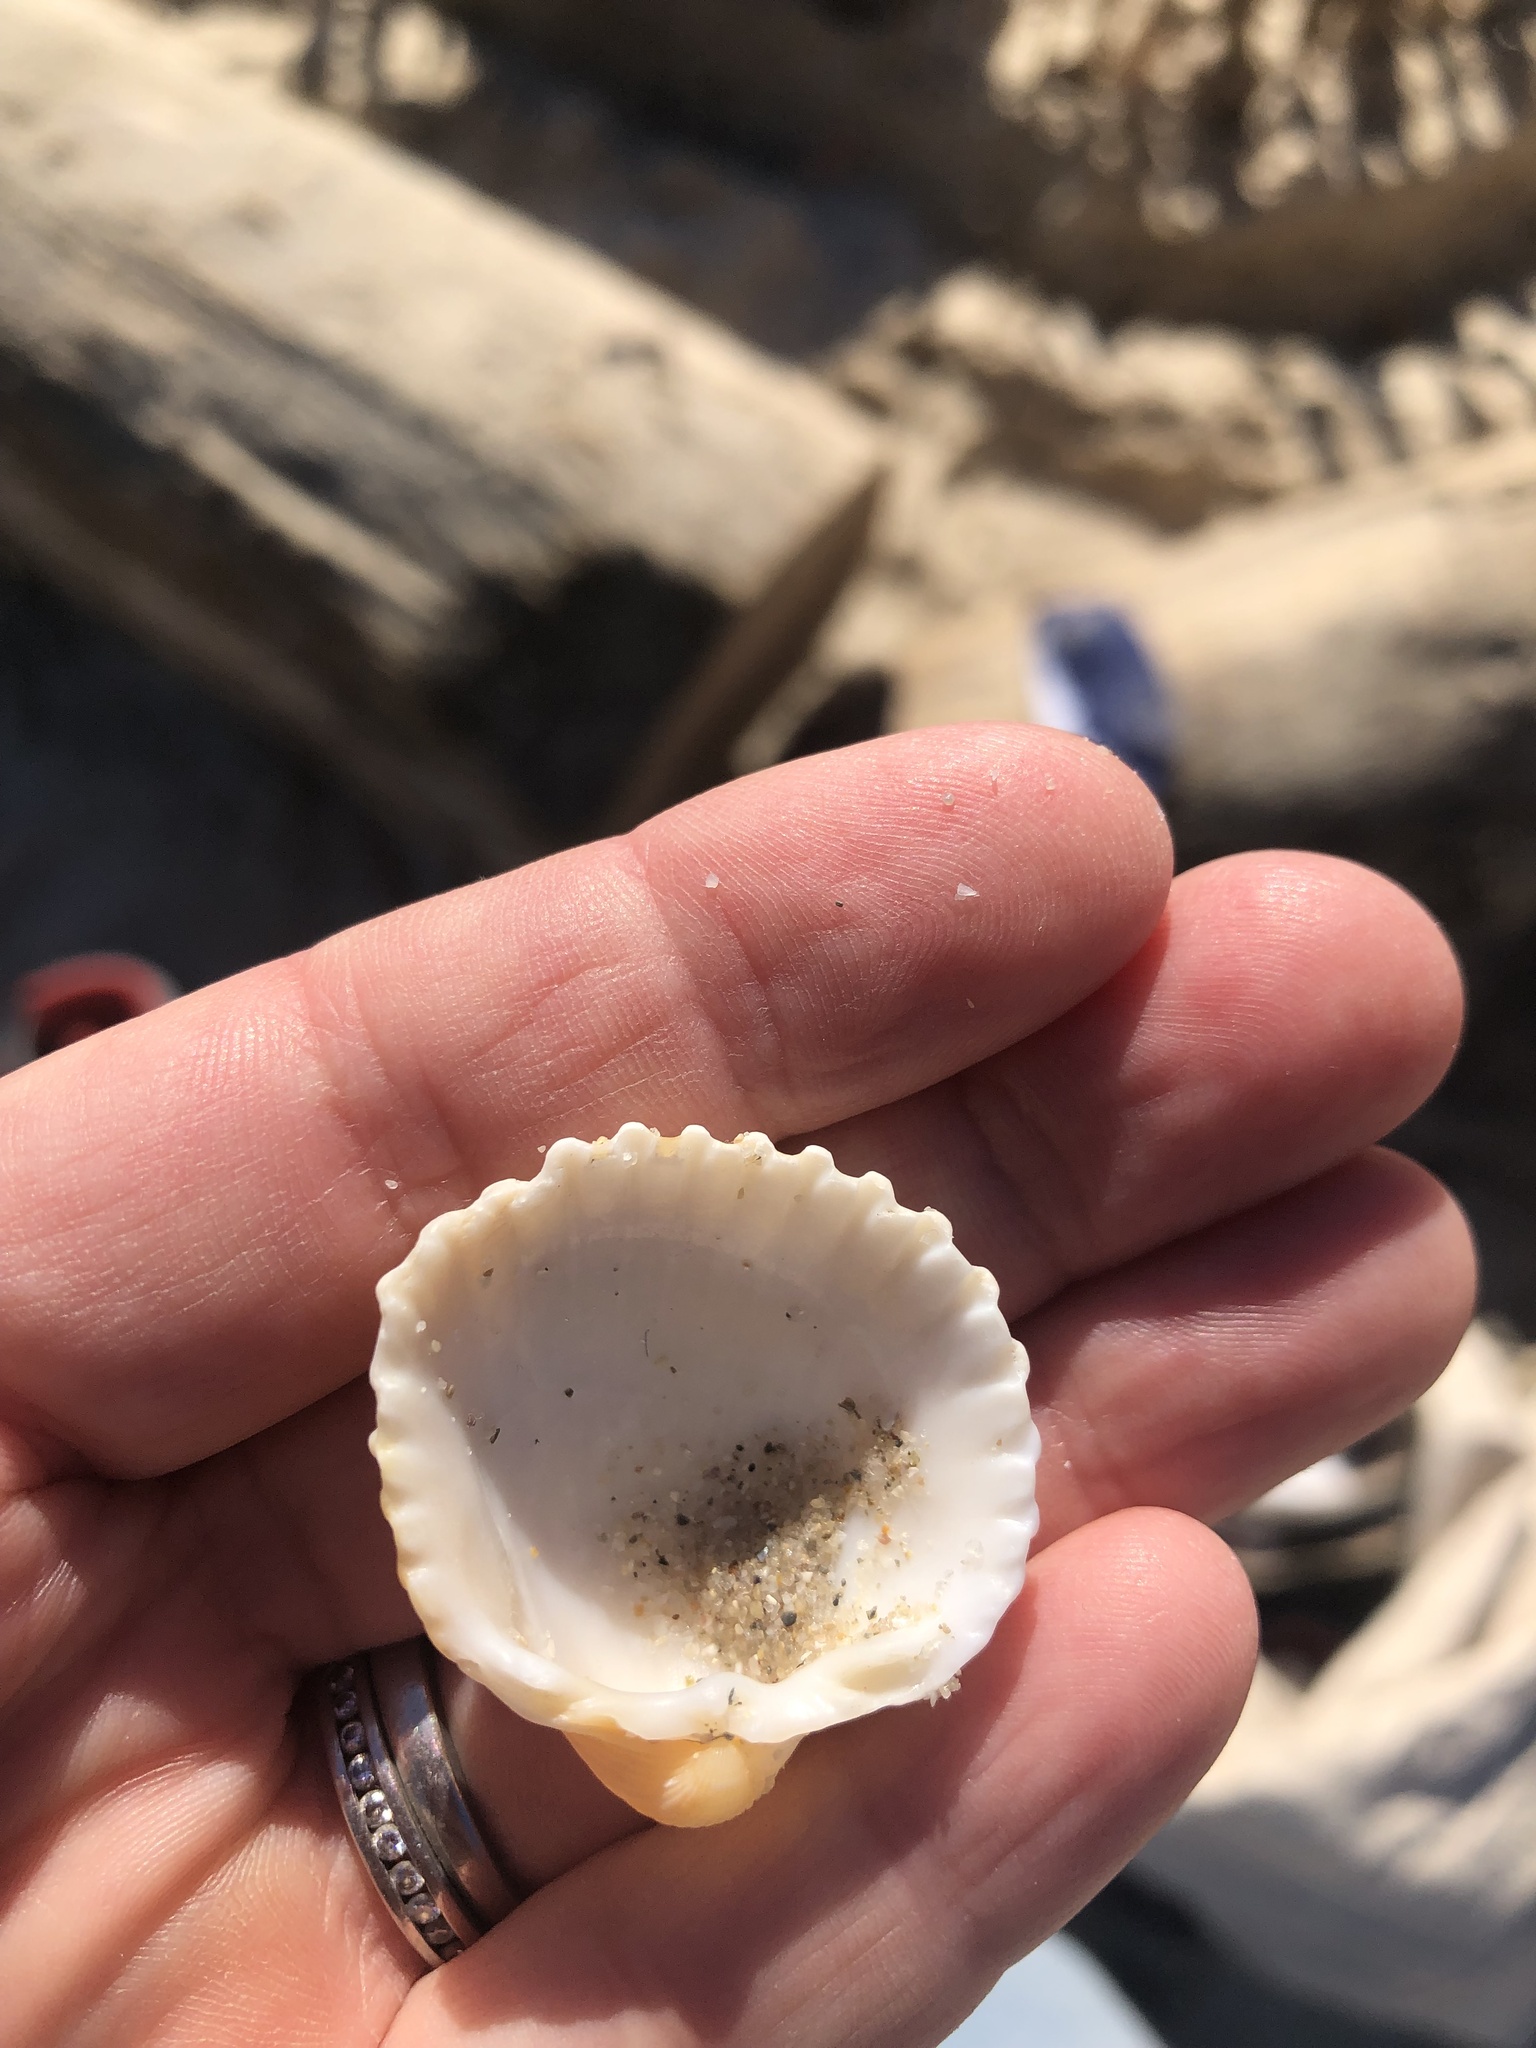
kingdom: Animalia
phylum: Mollusca
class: Bivalvia
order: Cardiida
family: Cardiidae
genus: Acanthocardia
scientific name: Acanthocardia tuberculata
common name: Rough cockle
